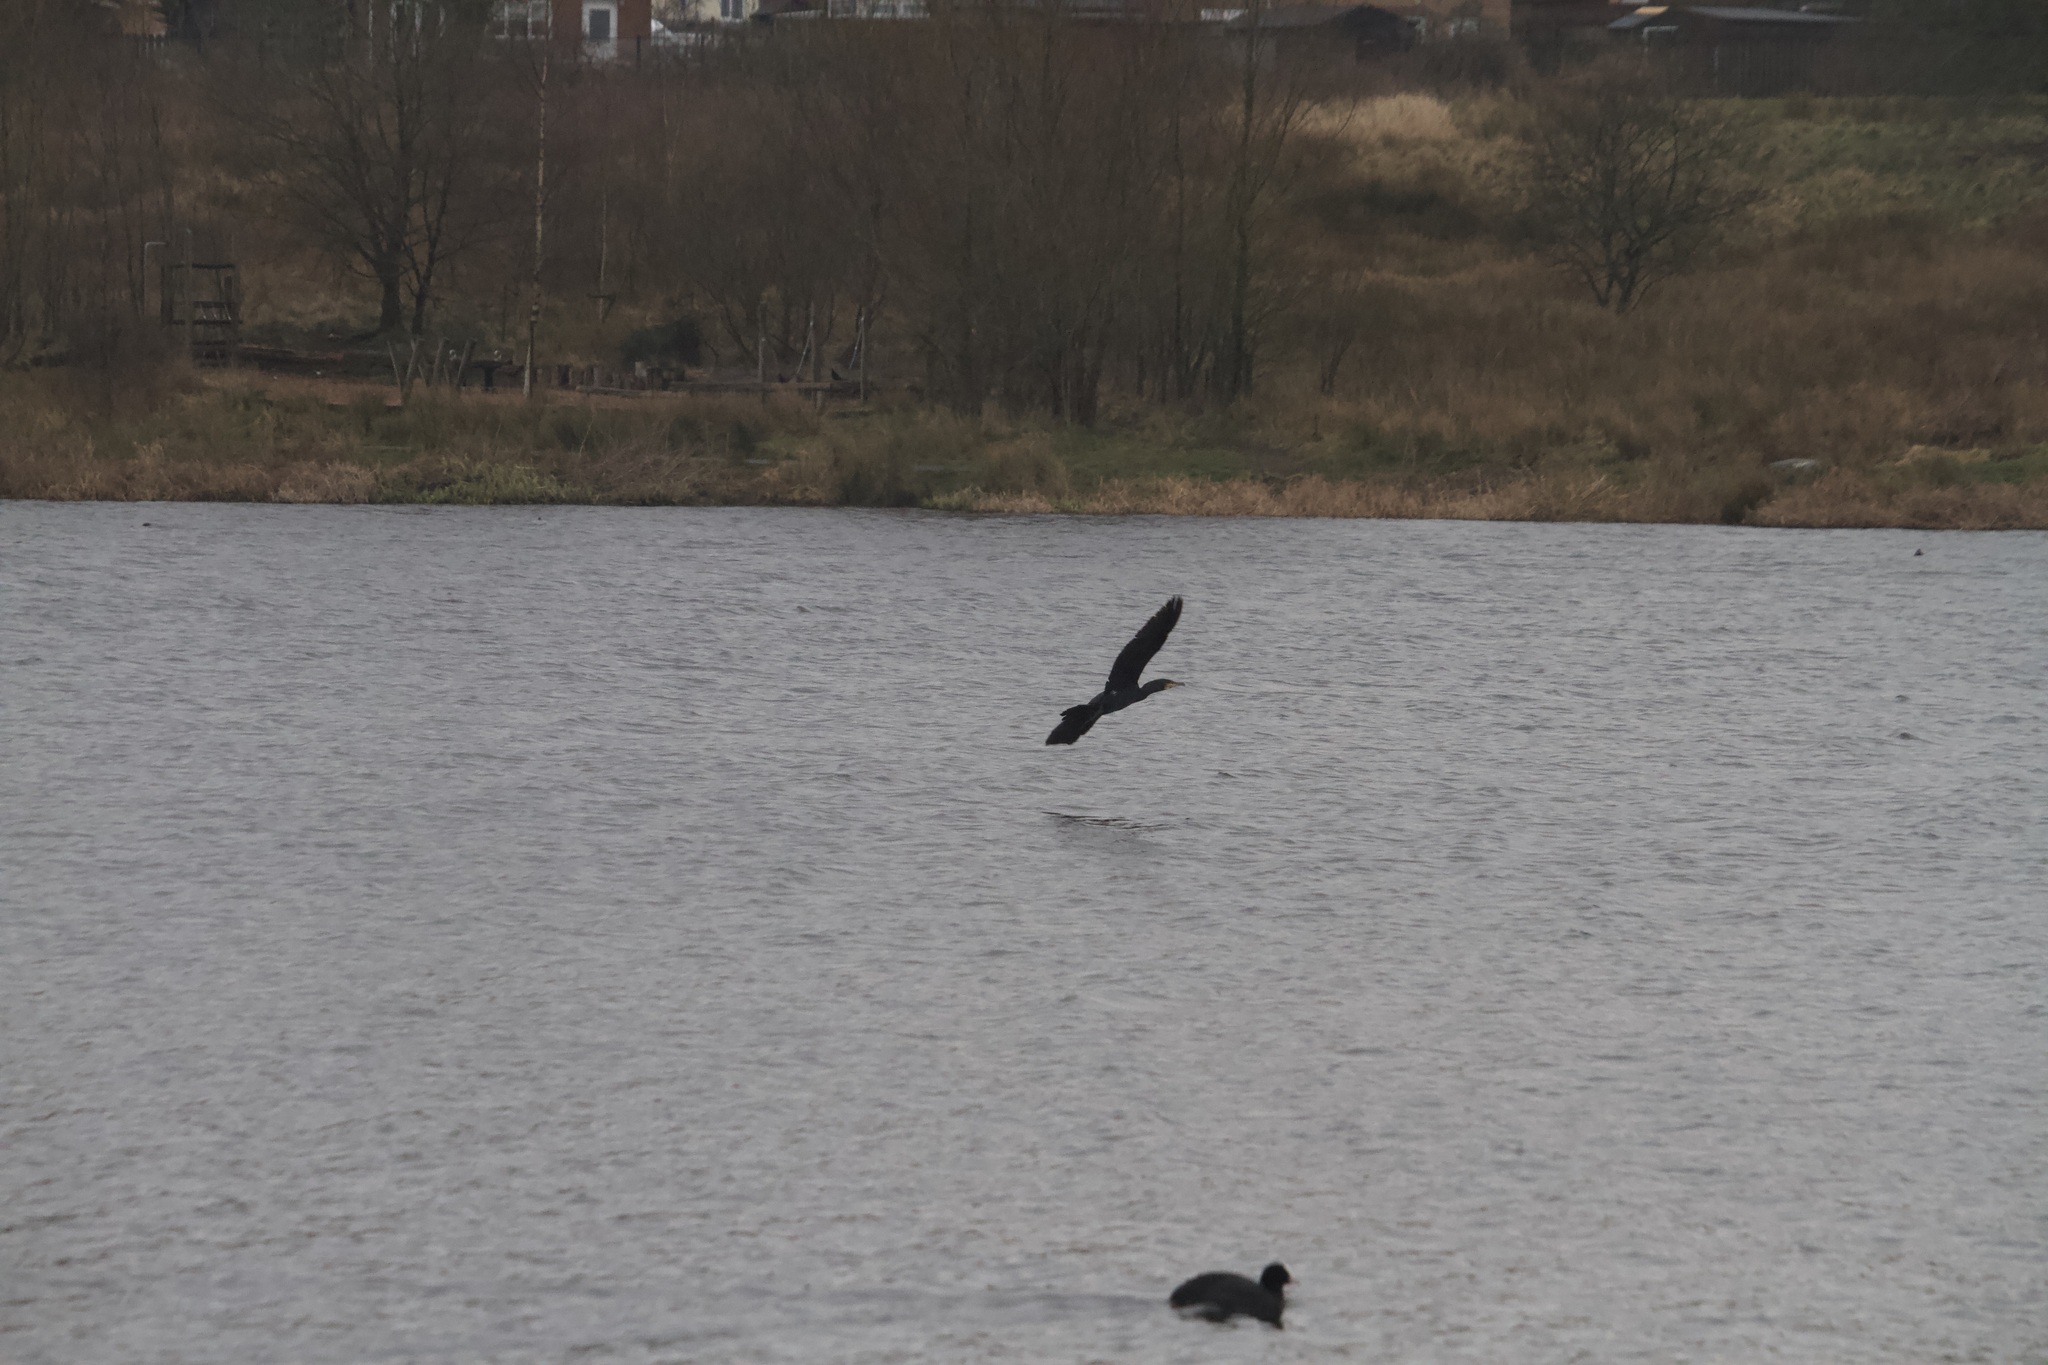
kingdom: Animalia
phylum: Chordata
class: Aves
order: Suliformes
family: Phalacrocoracidae
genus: Phalacrocorax
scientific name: Phalacrocorax carbo
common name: Great cormorant
